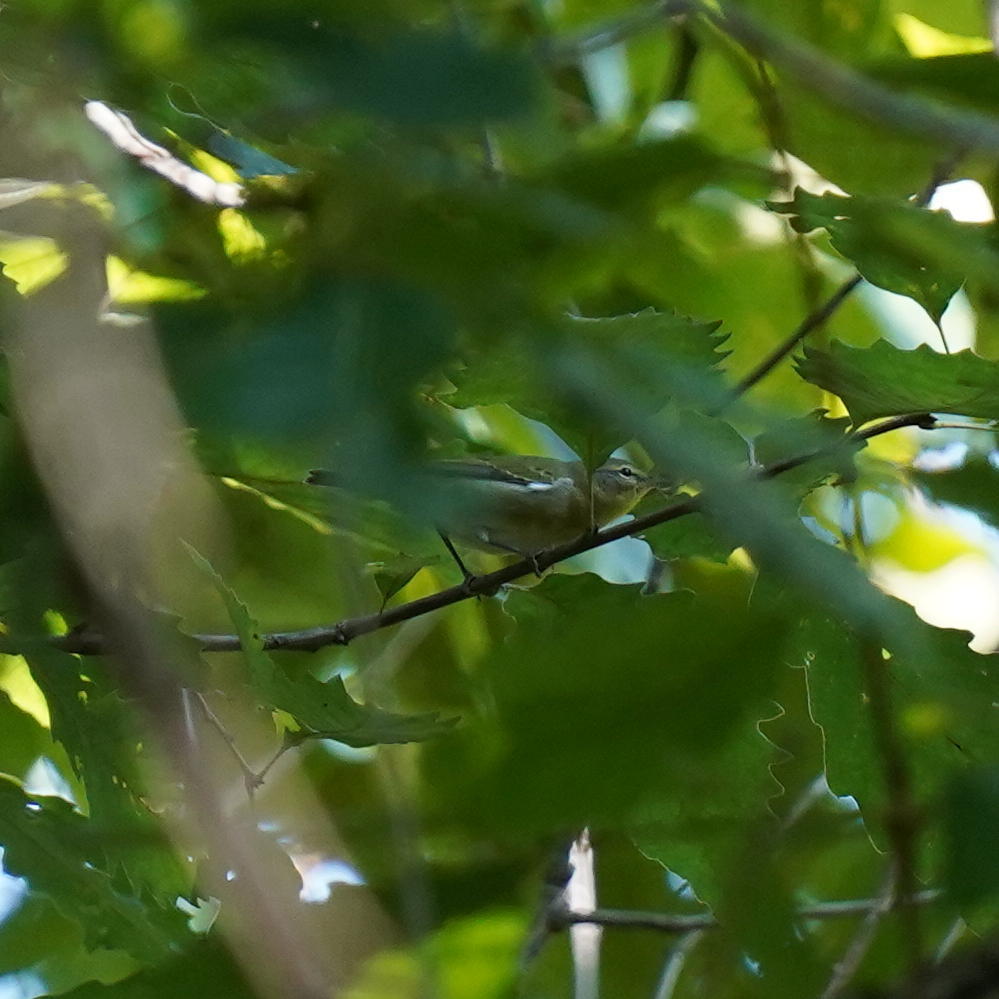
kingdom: Animalia
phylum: Chordata
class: Aves
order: Passeriformes
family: Parulidae
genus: Leiothlypis
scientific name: Leiothlypis peregrina
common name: Tennessee warbler
